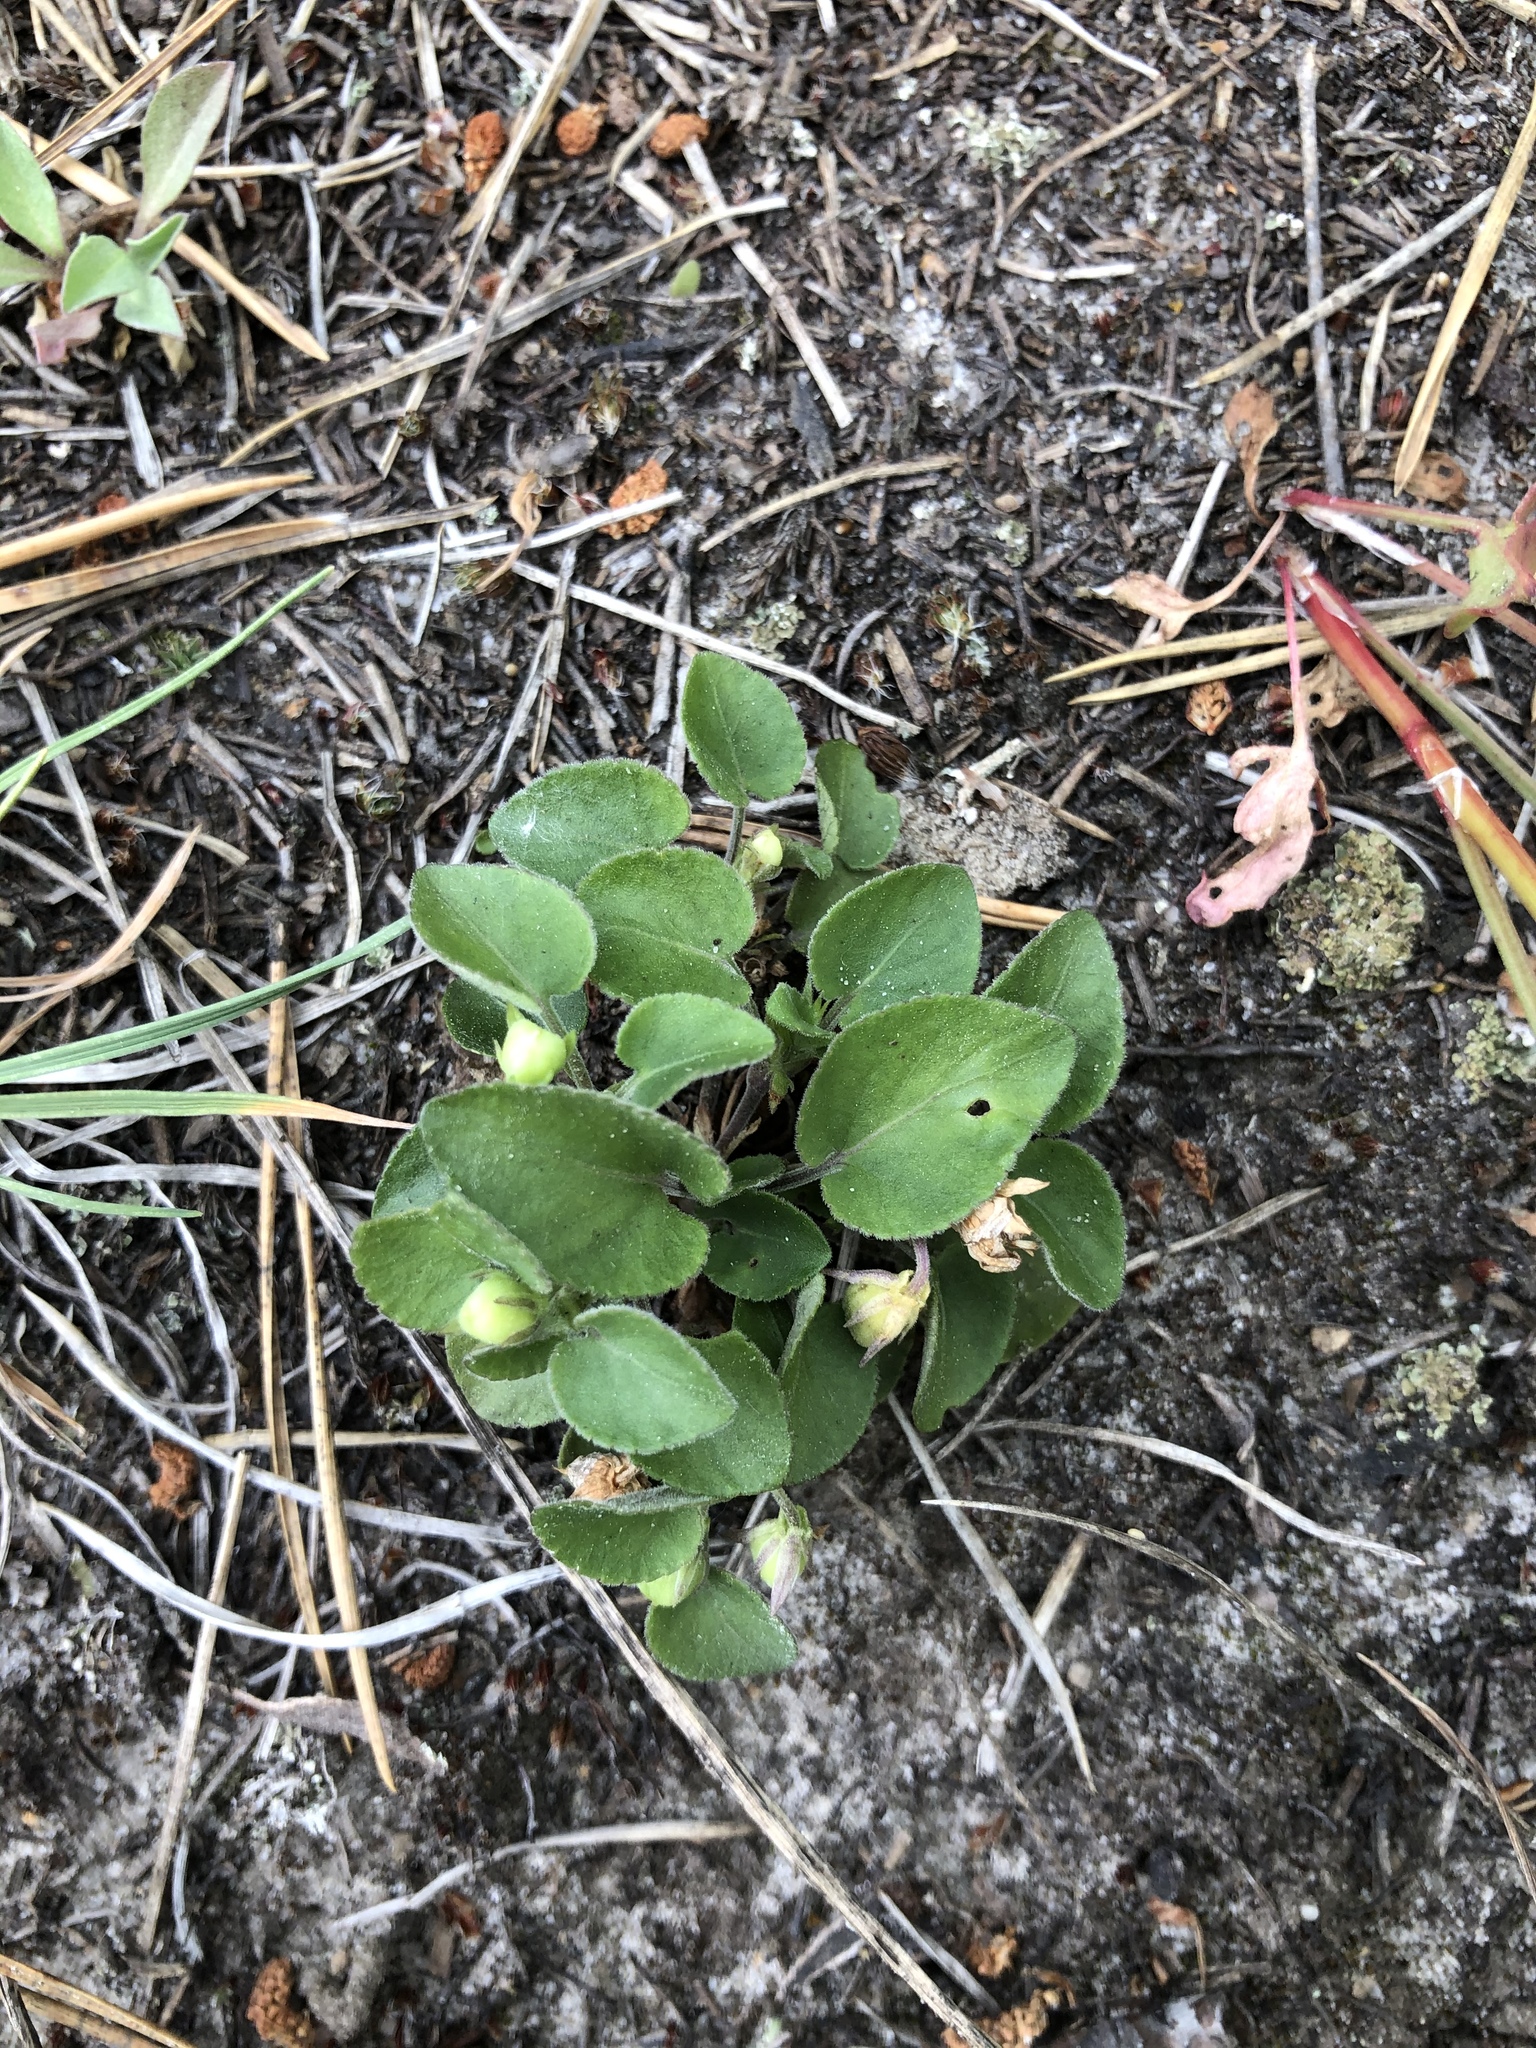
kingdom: Plantae
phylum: Tracheophyta
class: Magnoliopsida
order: Malpighiales
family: Violaceae
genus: Viola
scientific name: Viola rupestris
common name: Teesdale violet
